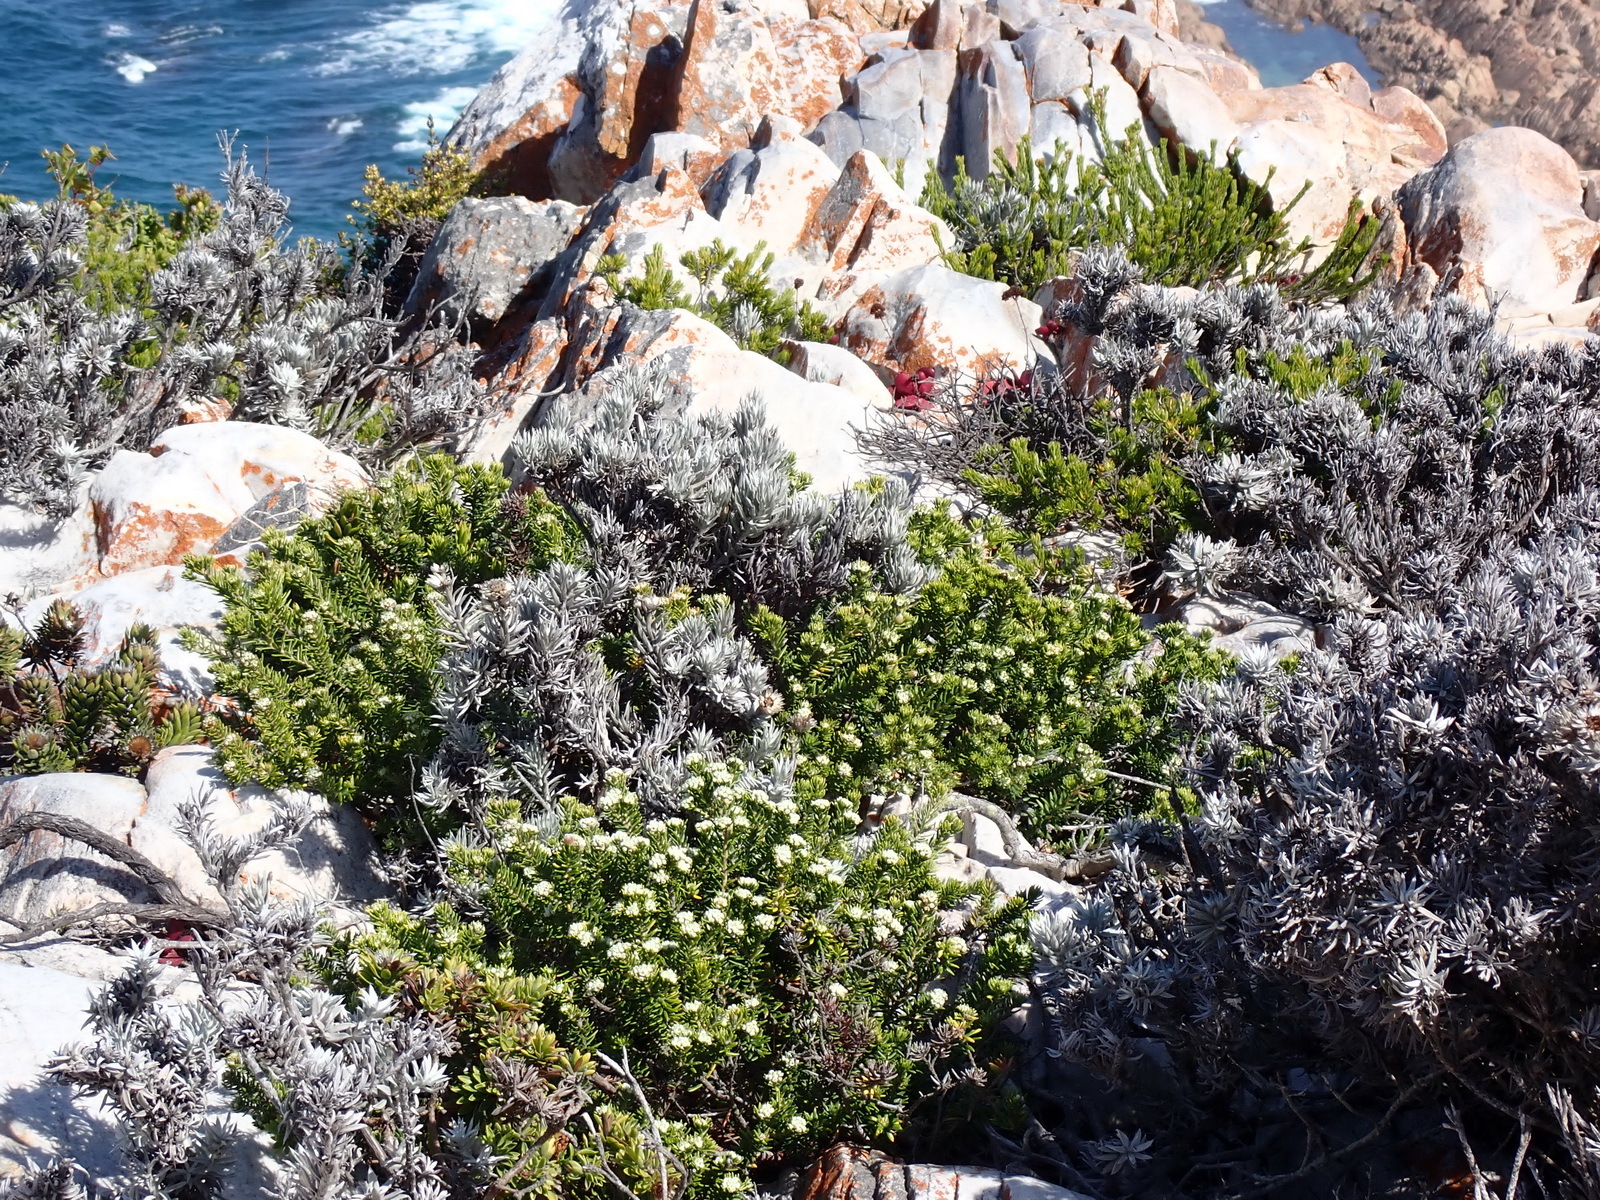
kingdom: Plantae
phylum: Tracheophyta
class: Magnoliopsida
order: Rosales
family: Rhamnaceae
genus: Phylica
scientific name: Phylica axillaris
